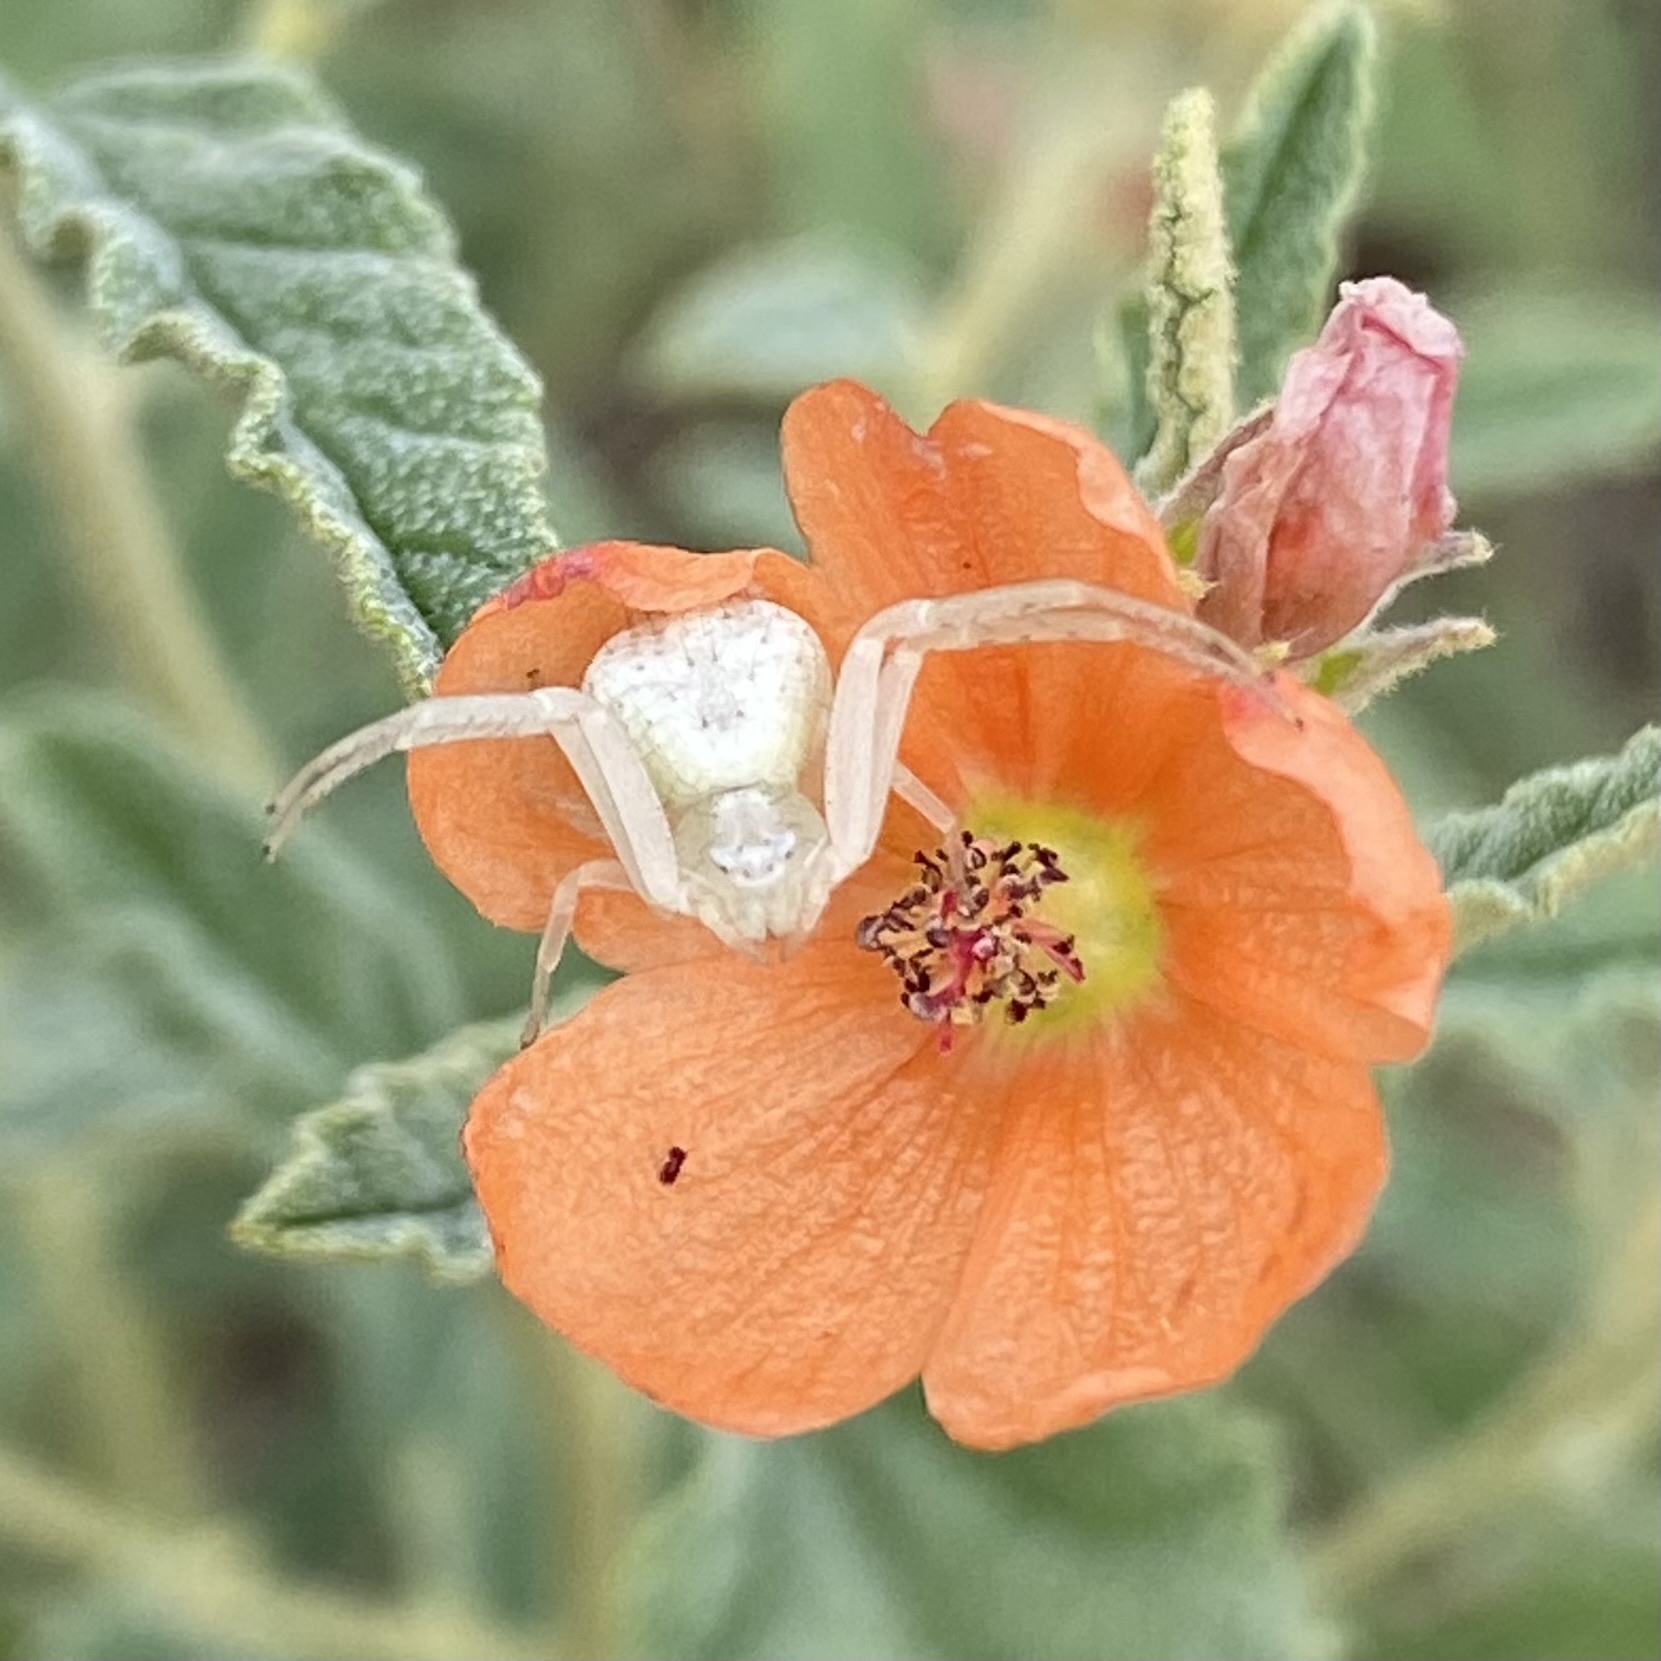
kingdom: Animalia
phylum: Arthropoda
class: Arachnida
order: Araneae
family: Thomisidae
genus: Mecaphesa
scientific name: Mecaphesa
